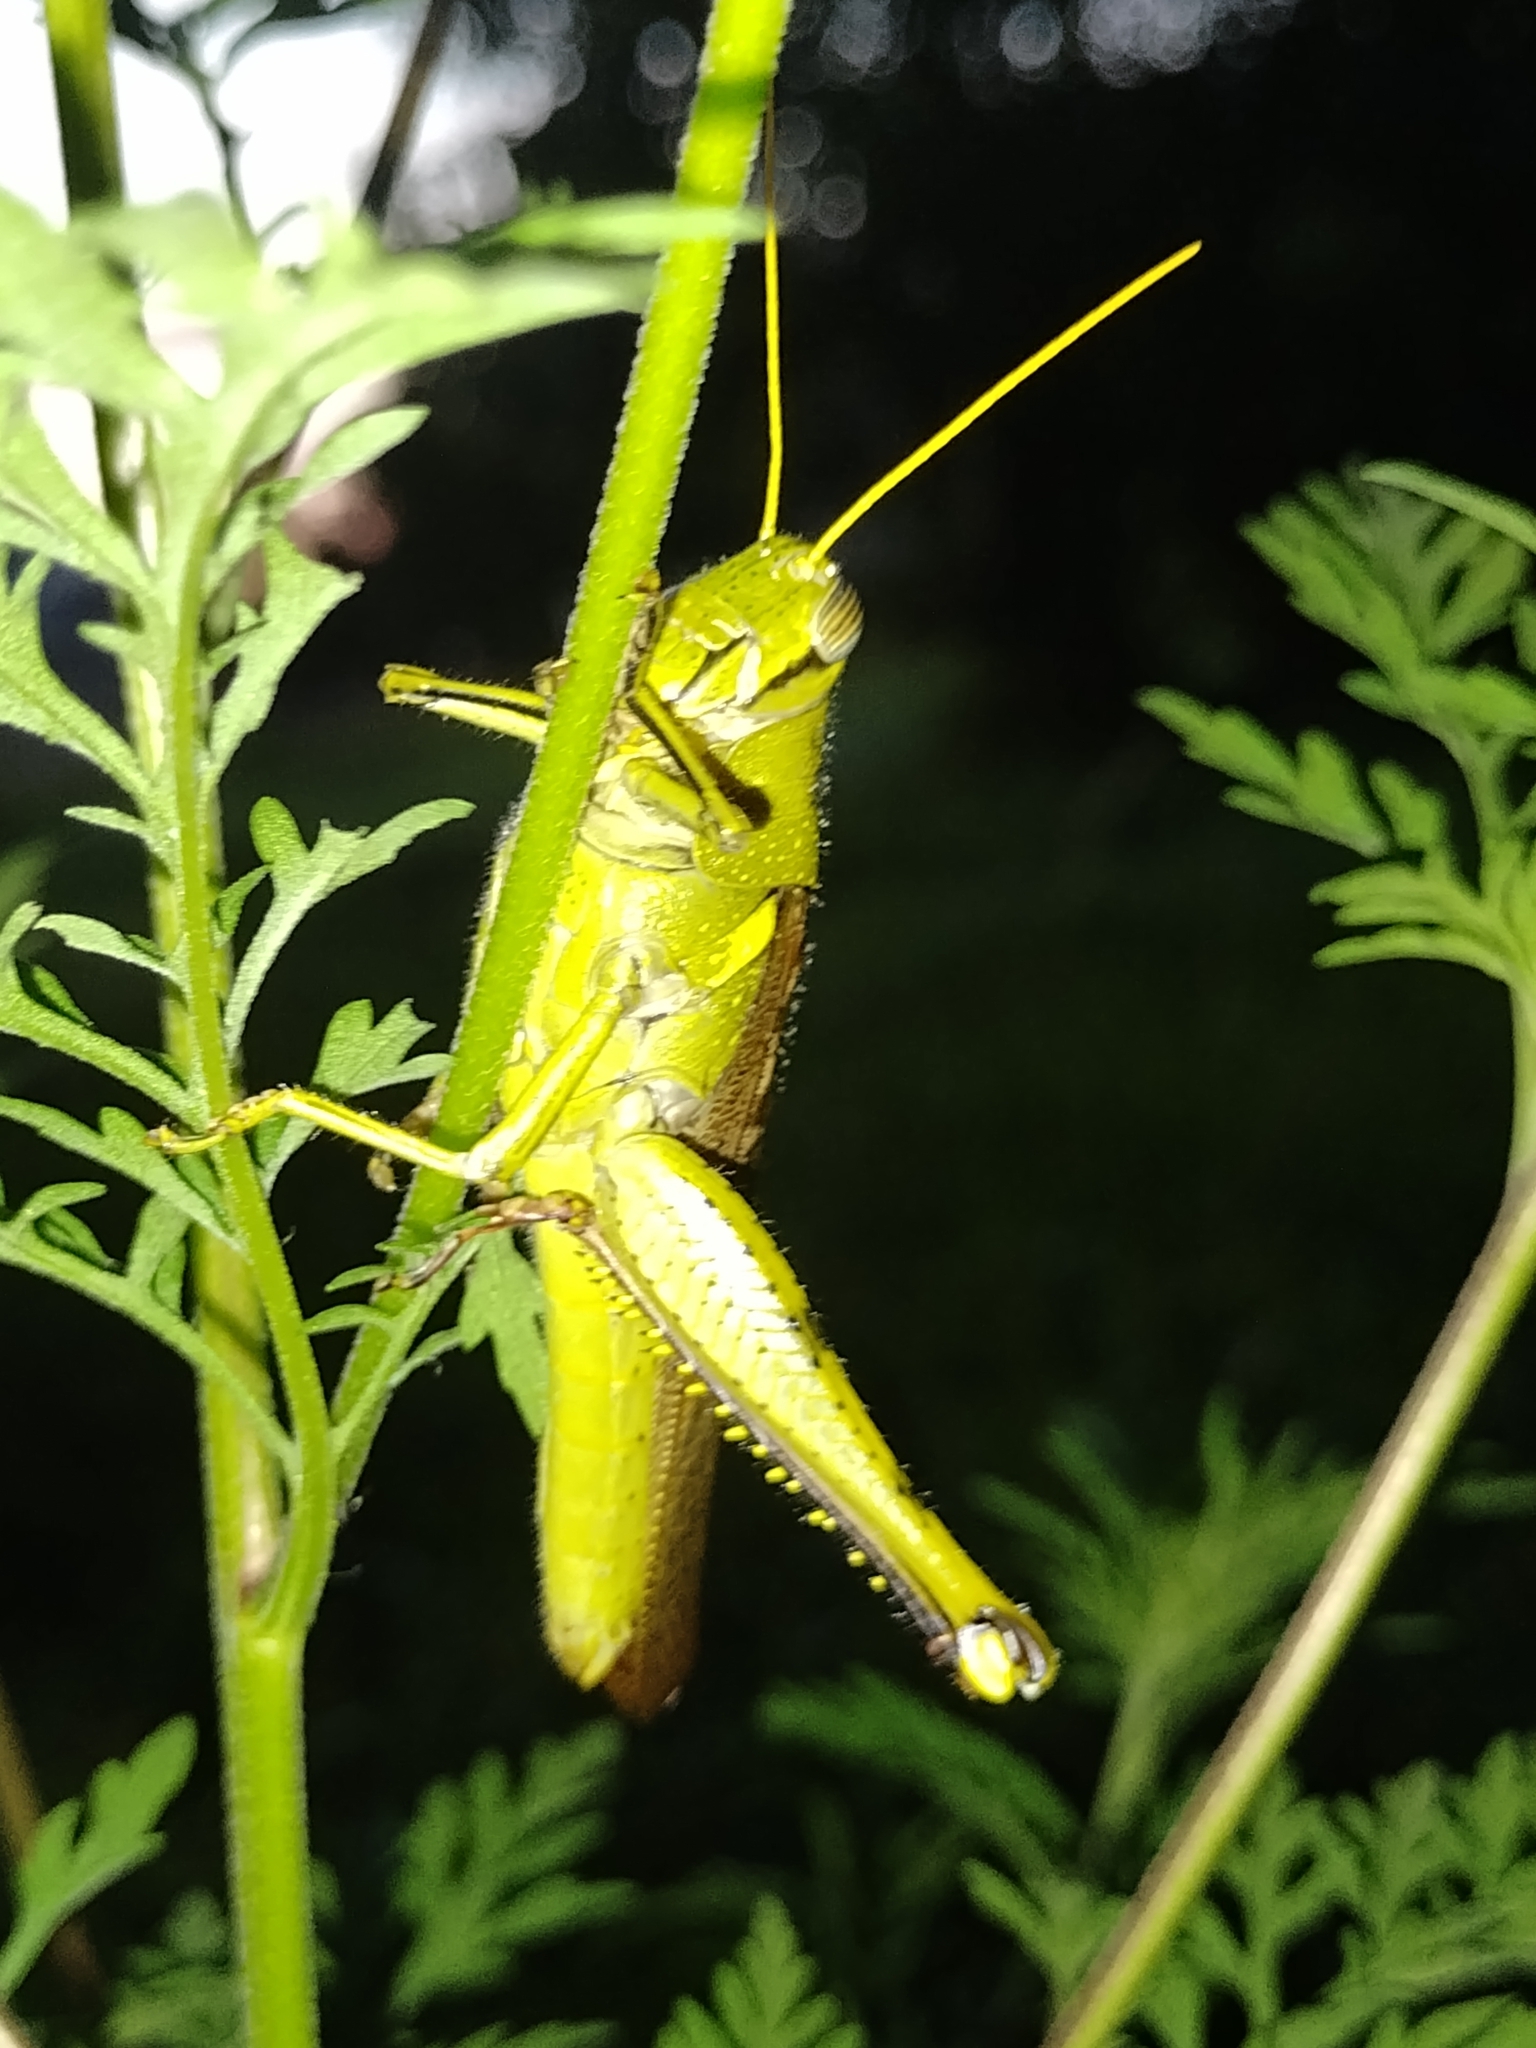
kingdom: Animalia
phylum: Arthropoda
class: Insecta
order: Orthoptera
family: Acrididae
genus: Schistocerca
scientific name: Schistocerca obscura
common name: Obscure bird grasshopper
